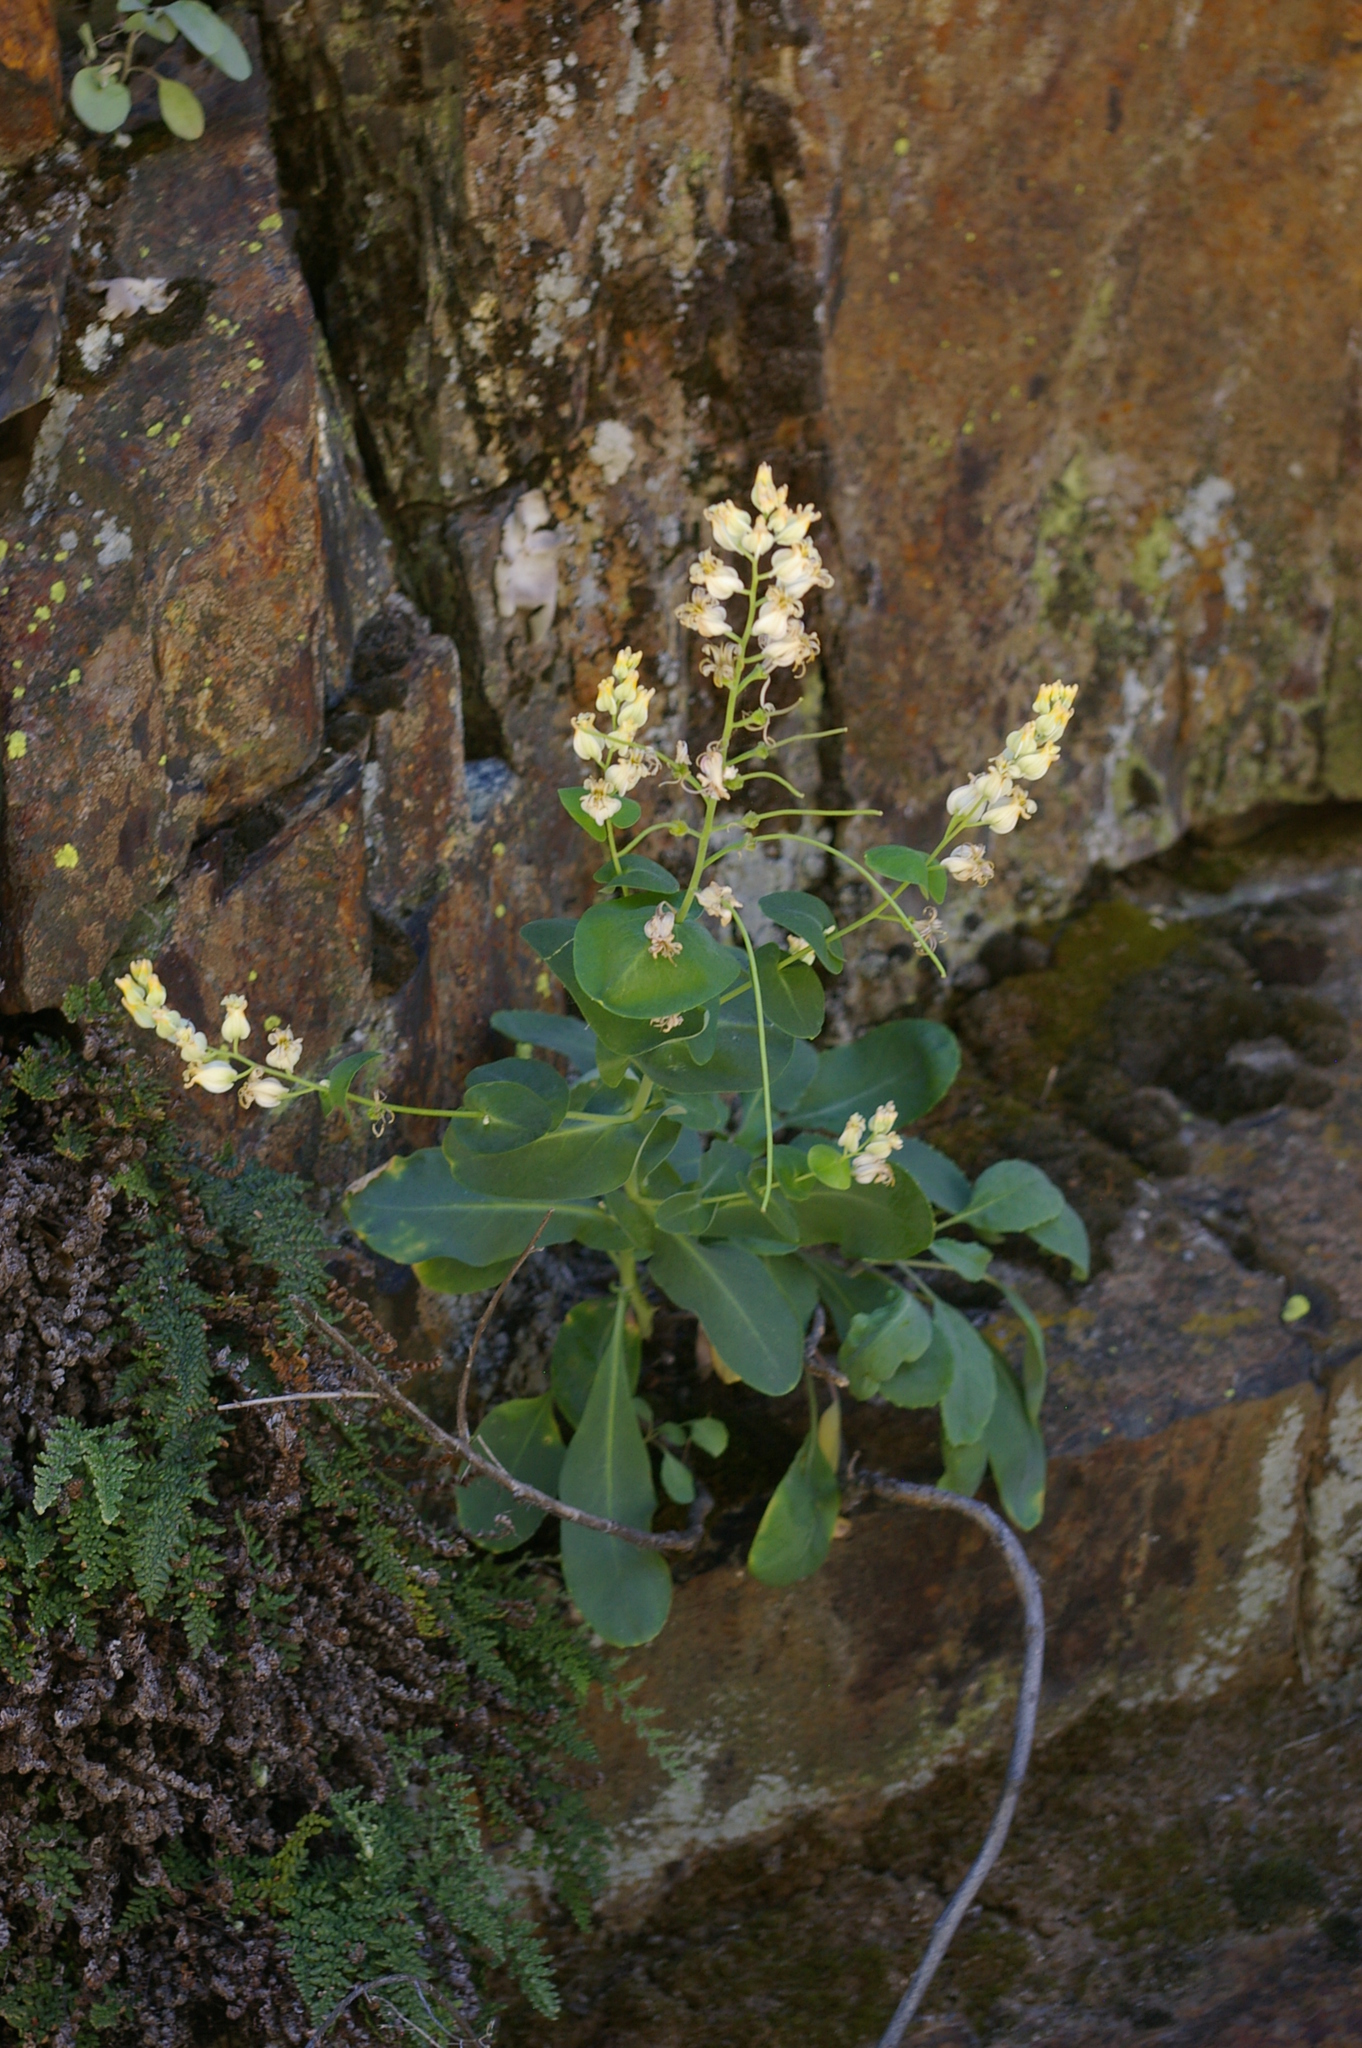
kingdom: Plantae
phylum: Tracheophyta
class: Magnoliopsida
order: Brassicales
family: Brassicaceae
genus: Streptanthus
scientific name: Streptanthus tortuosus
